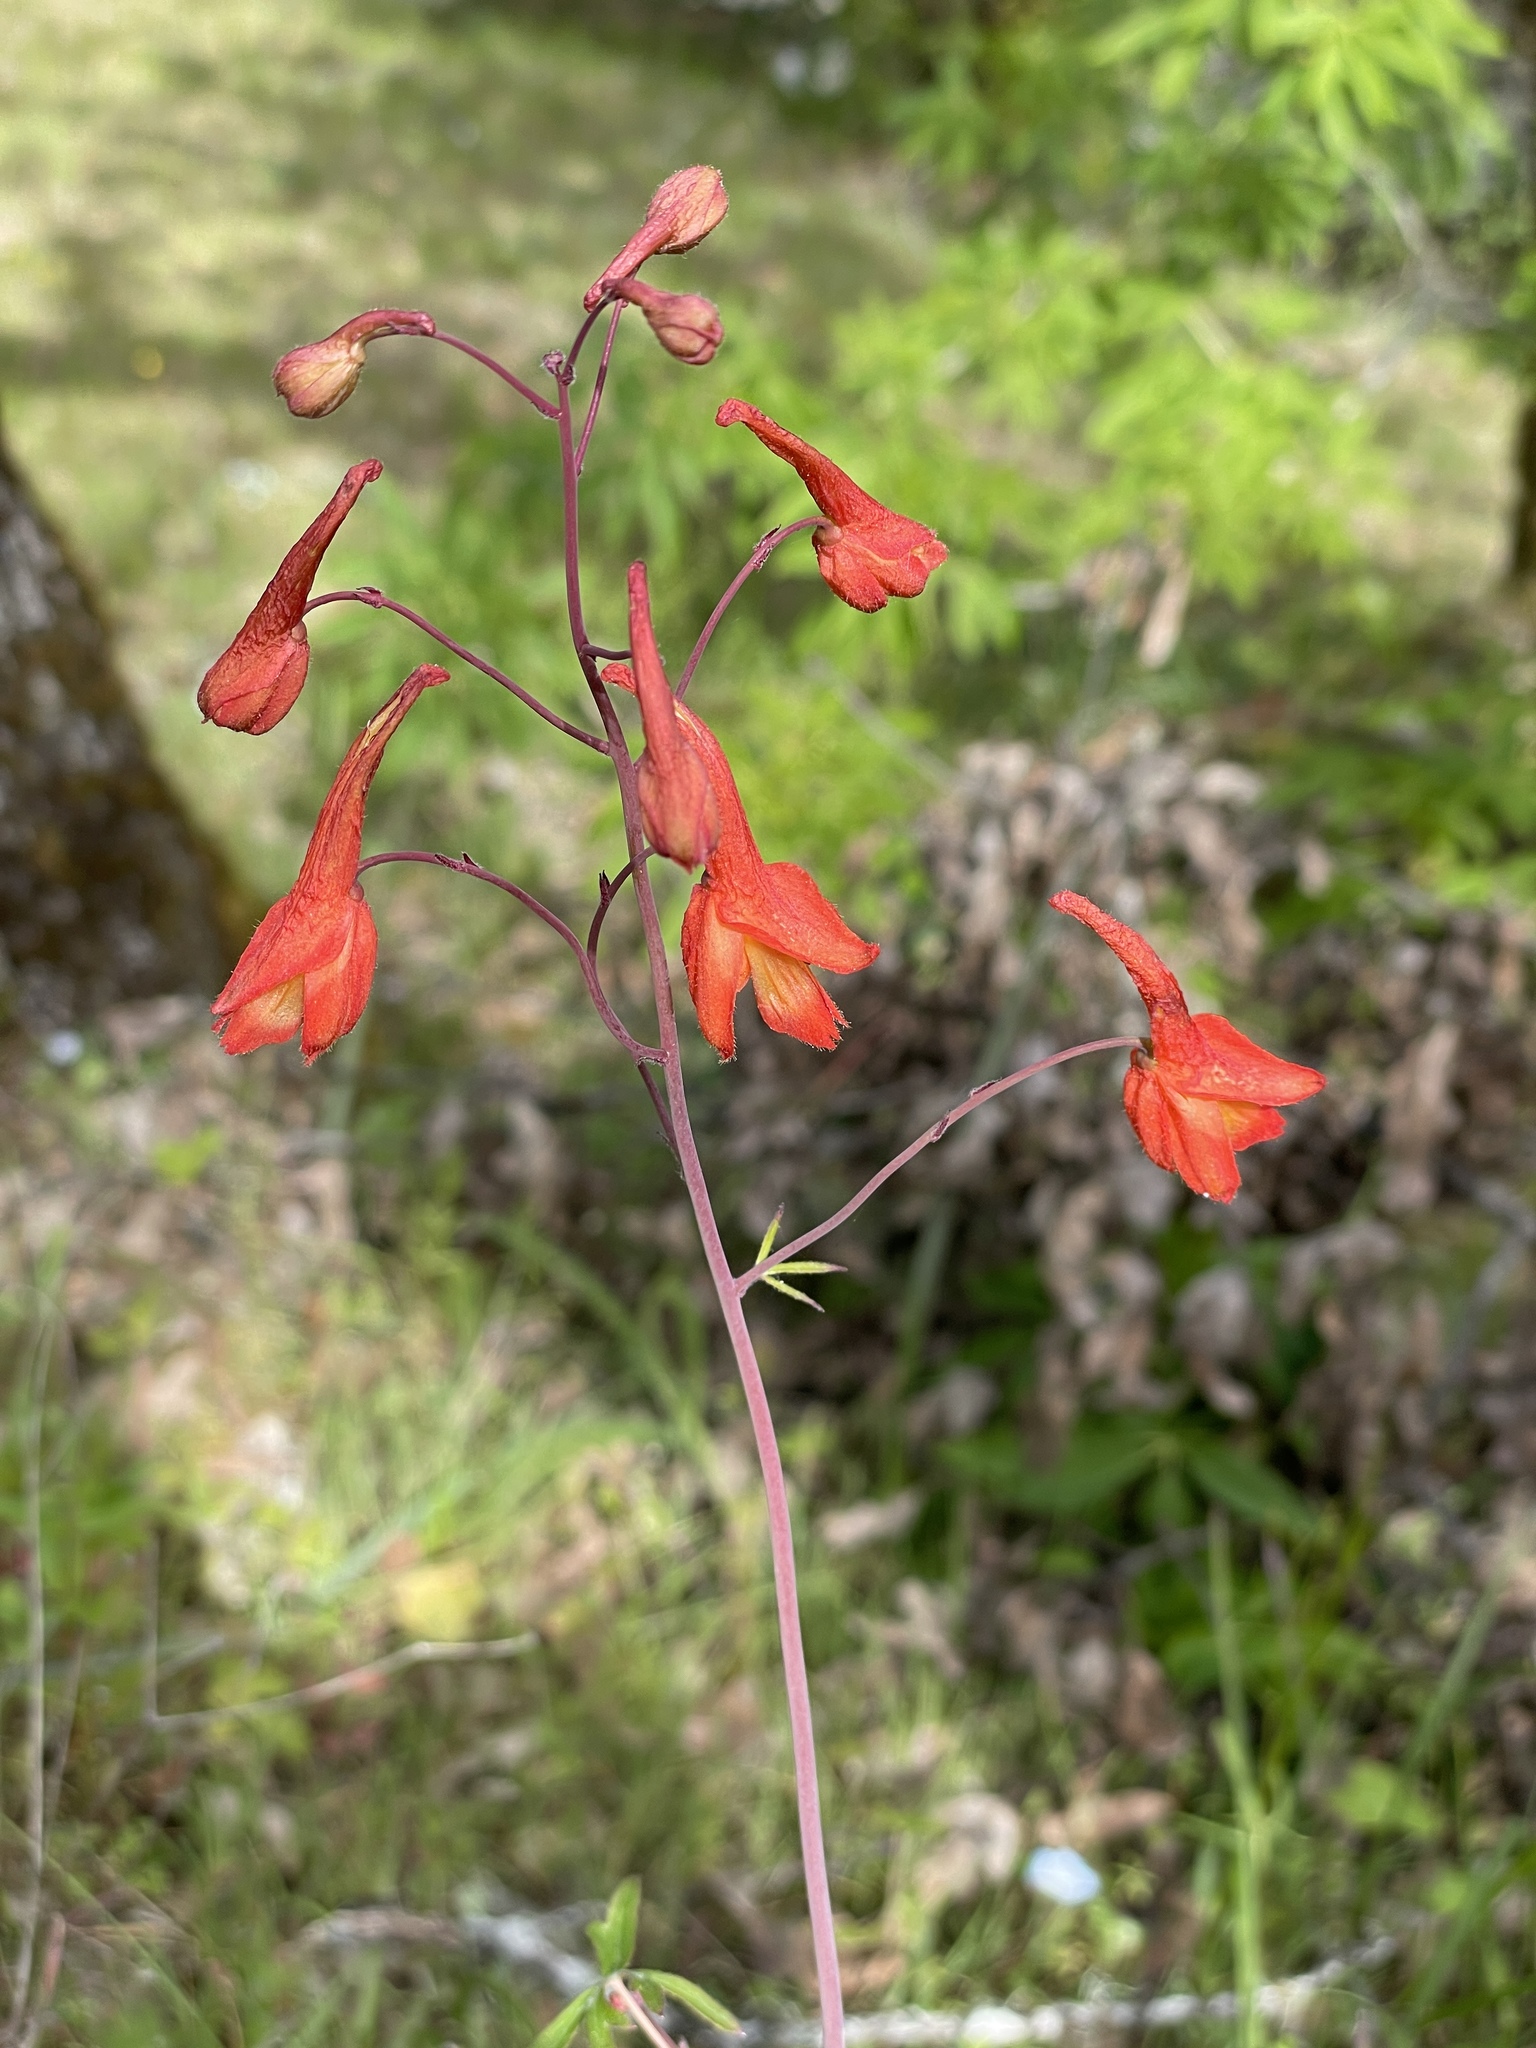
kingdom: Plantae
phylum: Tracheophyta
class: Magnoliopsida
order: Ranunculales
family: Ranunculaceae
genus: Delphinium
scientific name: Delphinium nudicaule
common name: Red larkspur
